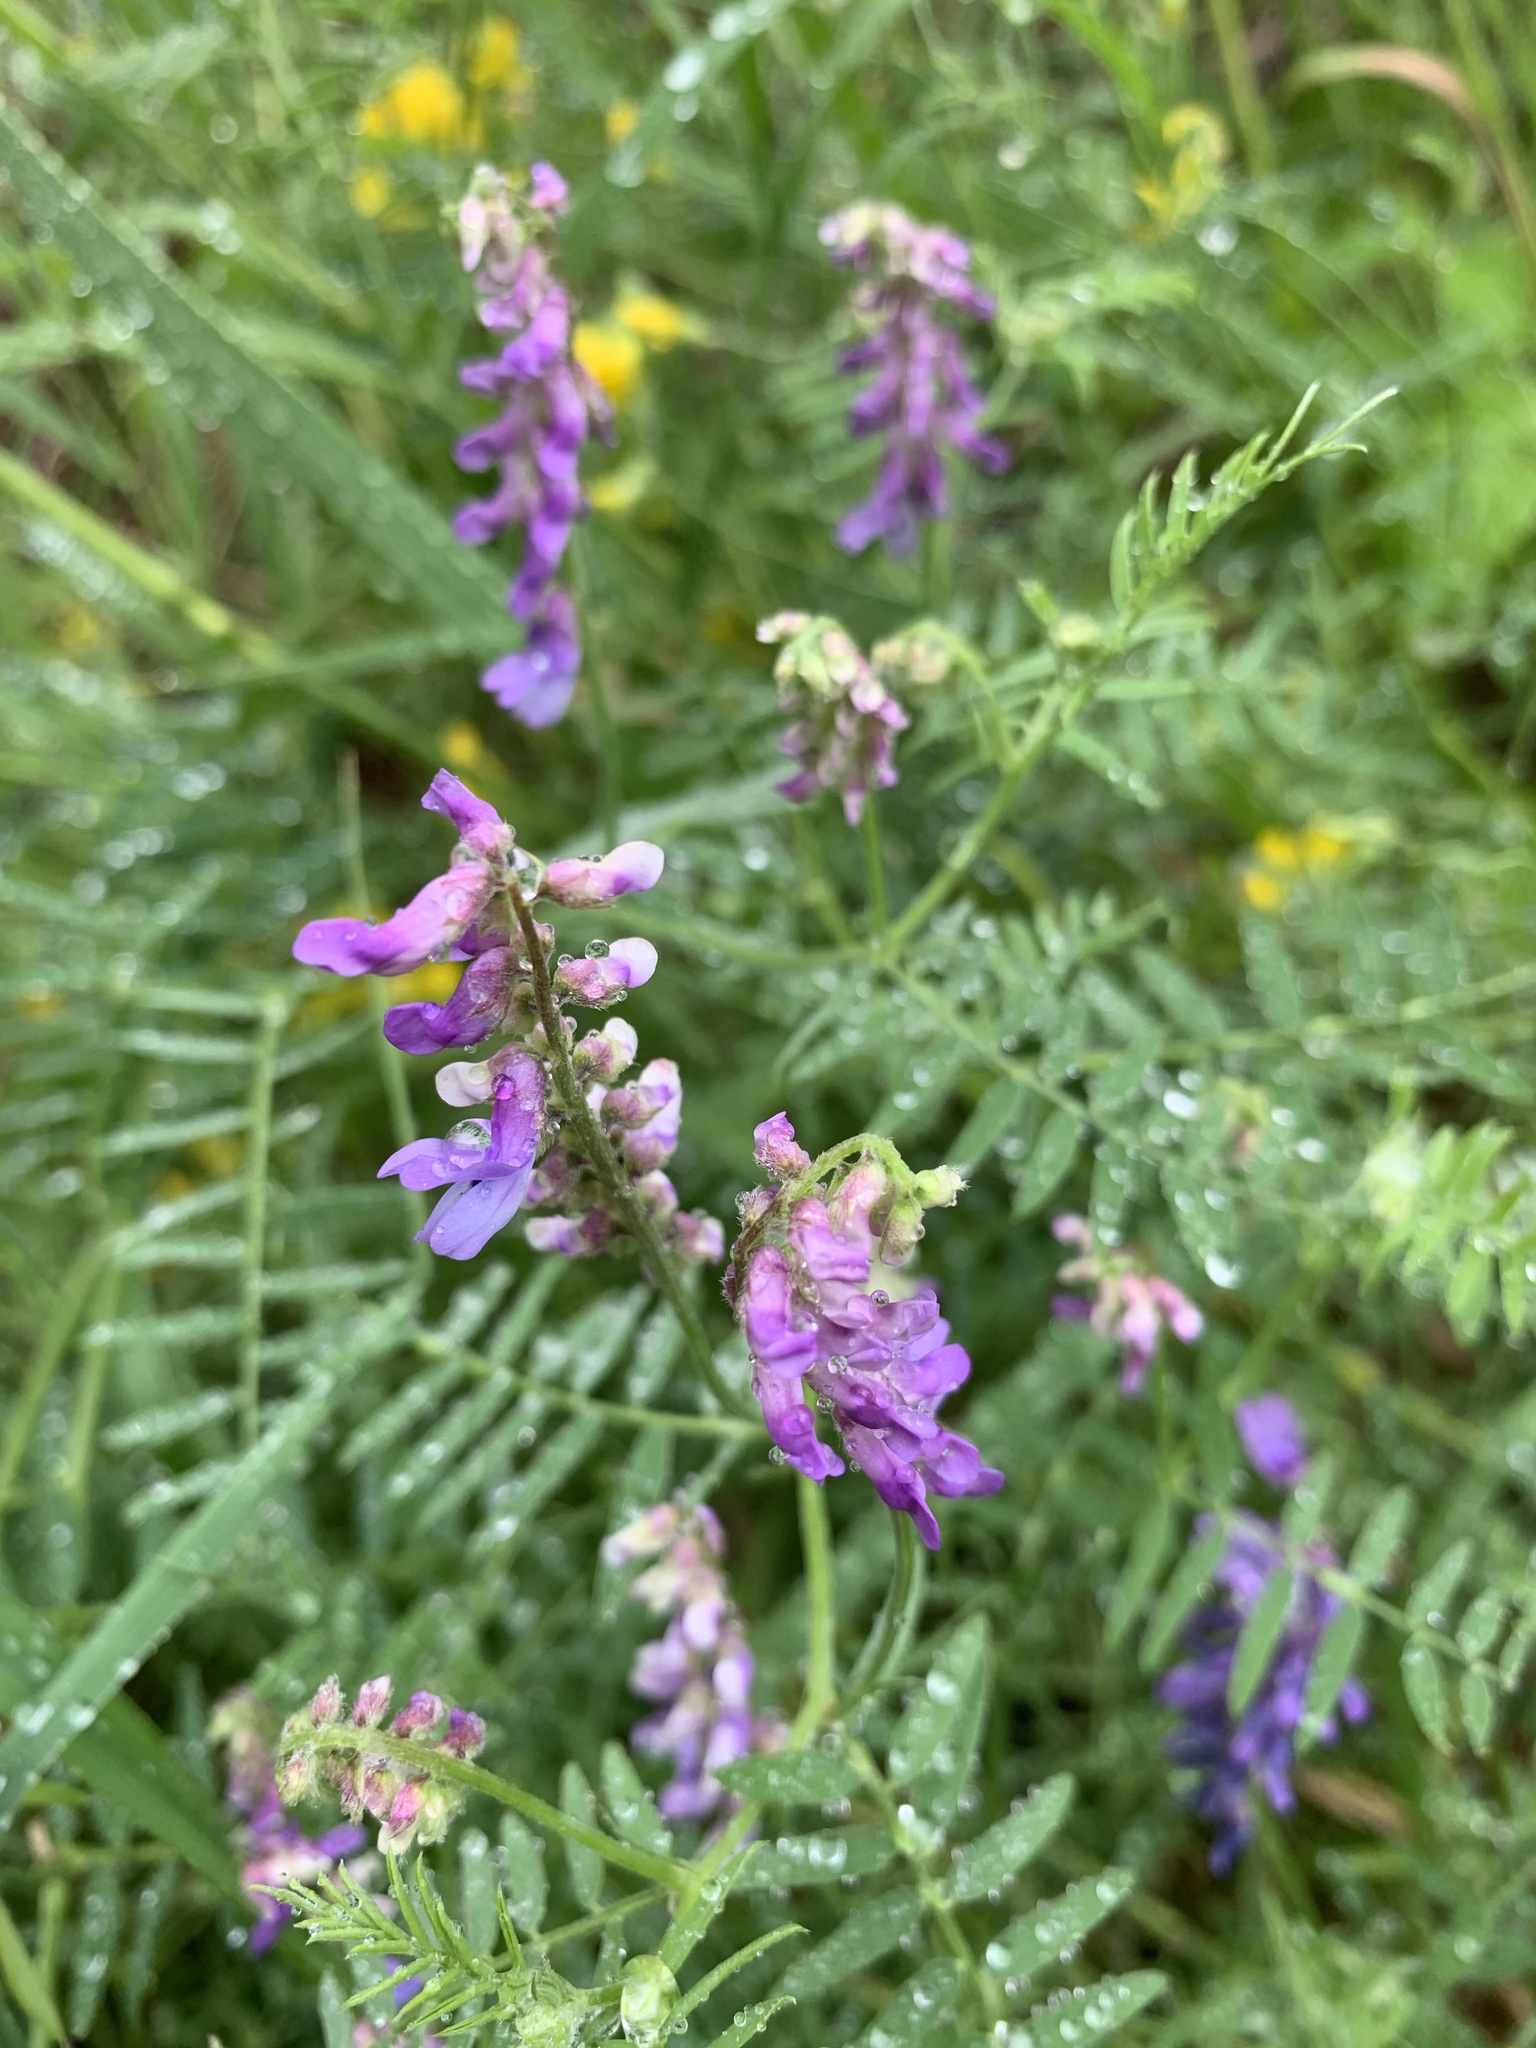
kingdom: Plantae
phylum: Tracheophyta
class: Magnoliopsida
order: Fabales
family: Fabaceae
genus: Vicia
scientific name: Vicia cracca
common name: Bird vetch
